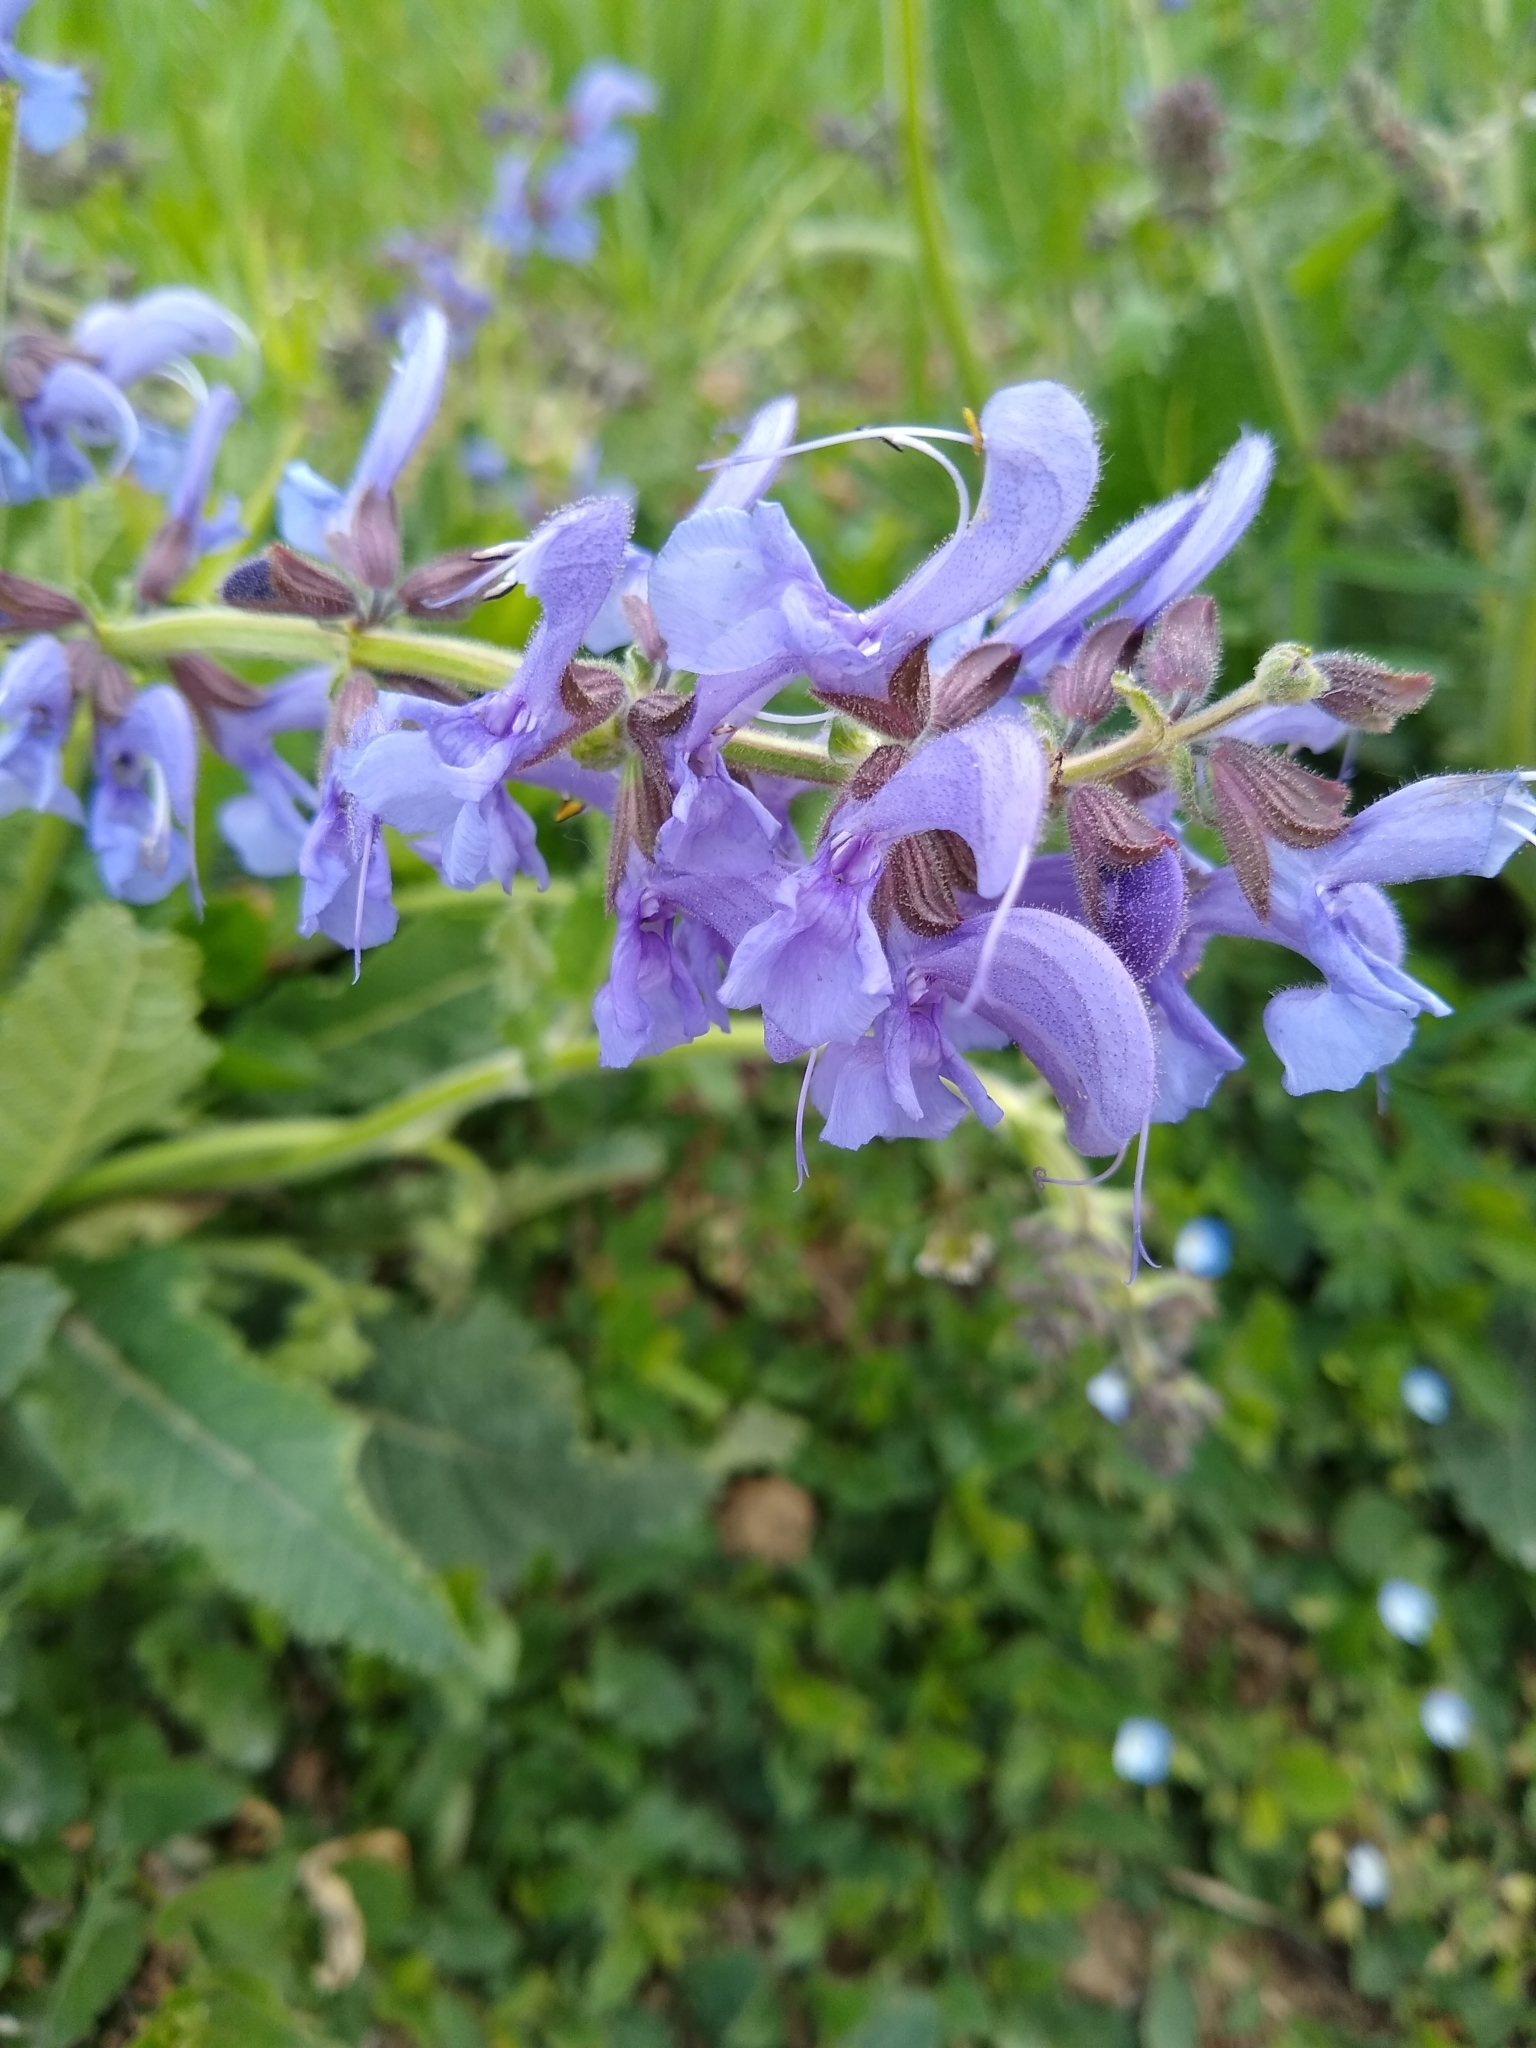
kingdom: Plantae
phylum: Tracheophyta
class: Magnoliopsida
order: Lamiales
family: Lamiaceae
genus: Salvia
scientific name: Salvia pratensis
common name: Meadow sage
